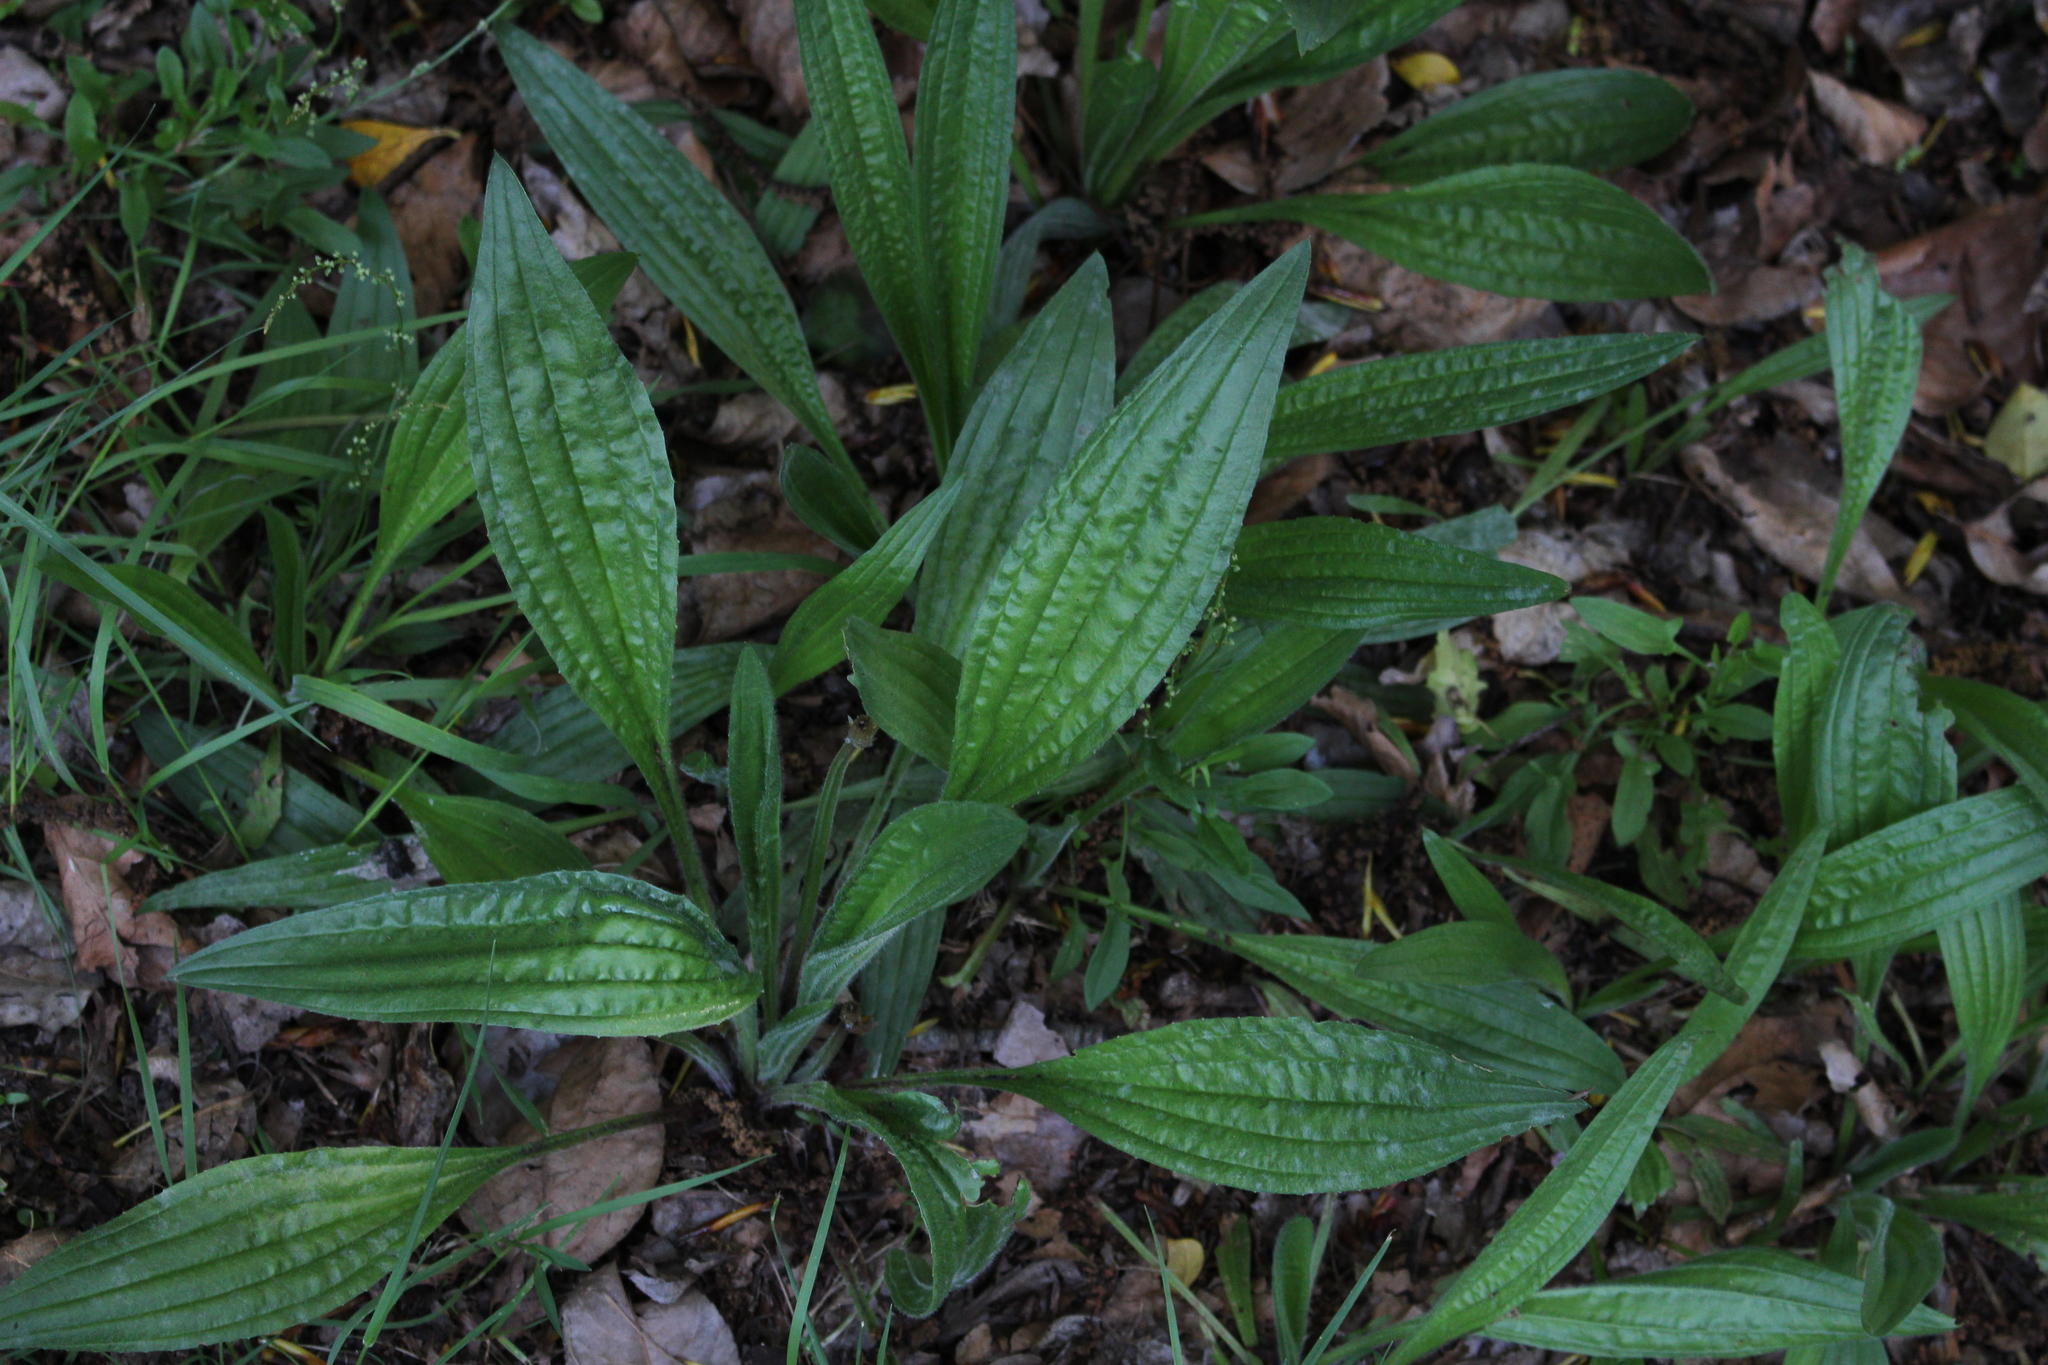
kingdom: Plantae
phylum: Tracheophyta
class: Magnoliopsida
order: Lamiales
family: Plantaginaceae
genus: Plantago
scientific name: Plantago lanceolata
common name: Ribwort plantain
